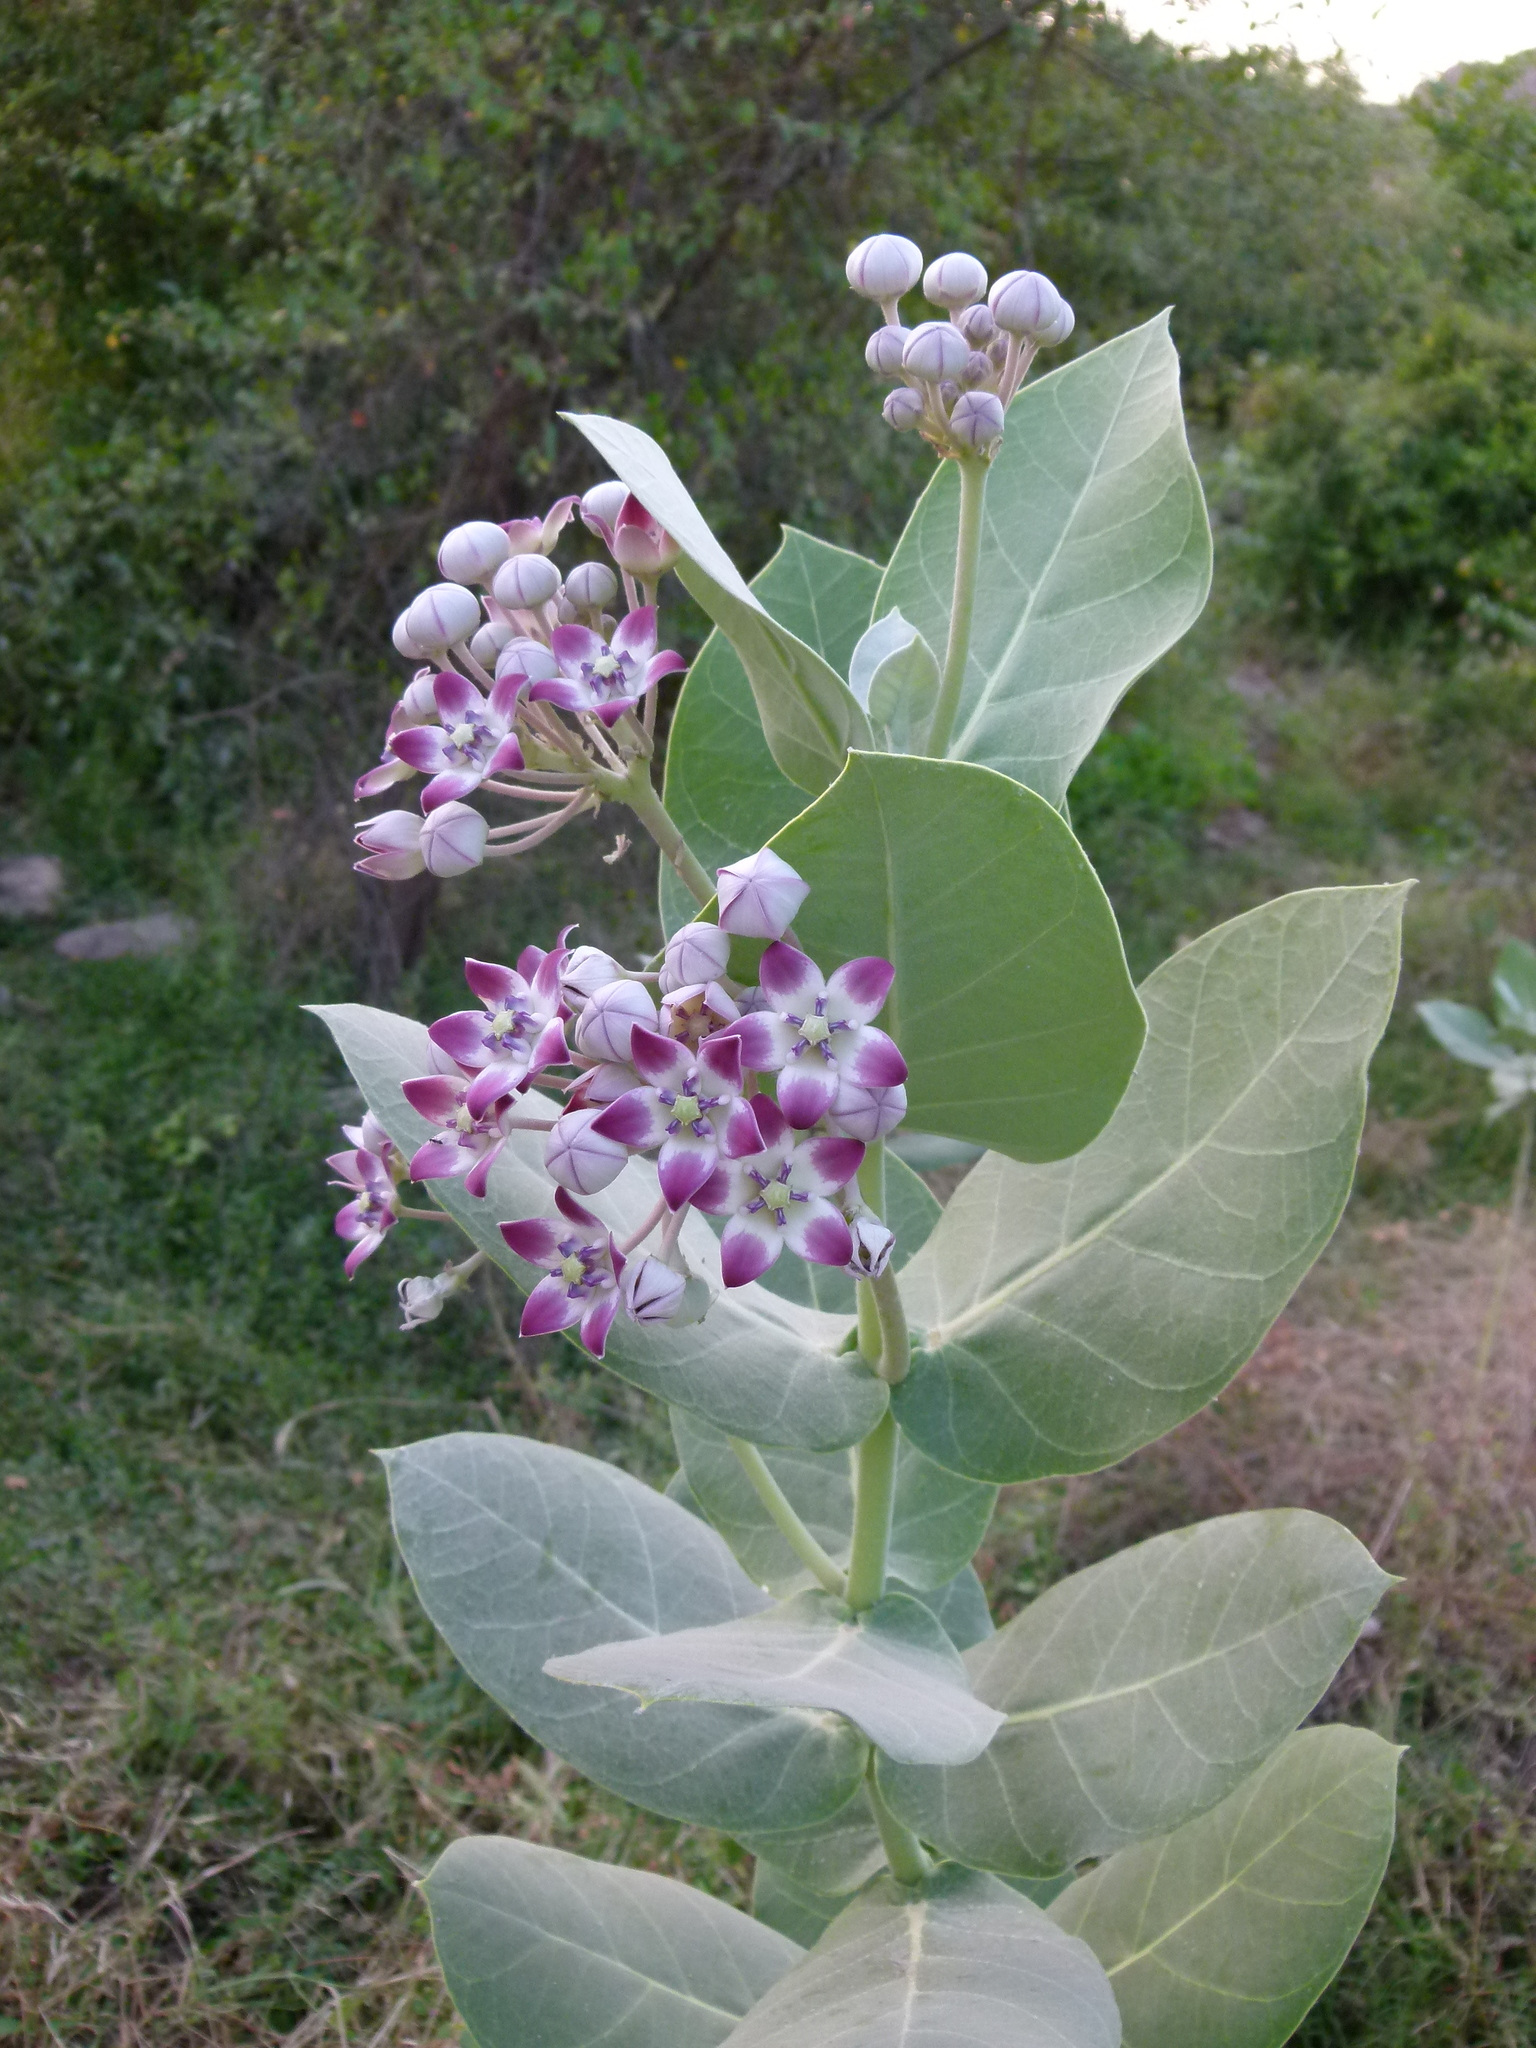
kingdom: Plantae
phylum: Tracheophyta
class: Magnoliopsida
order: Gentianales
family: Apocynaceae
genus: Calotropis
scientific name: Calotropis procera
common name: Roostertree
